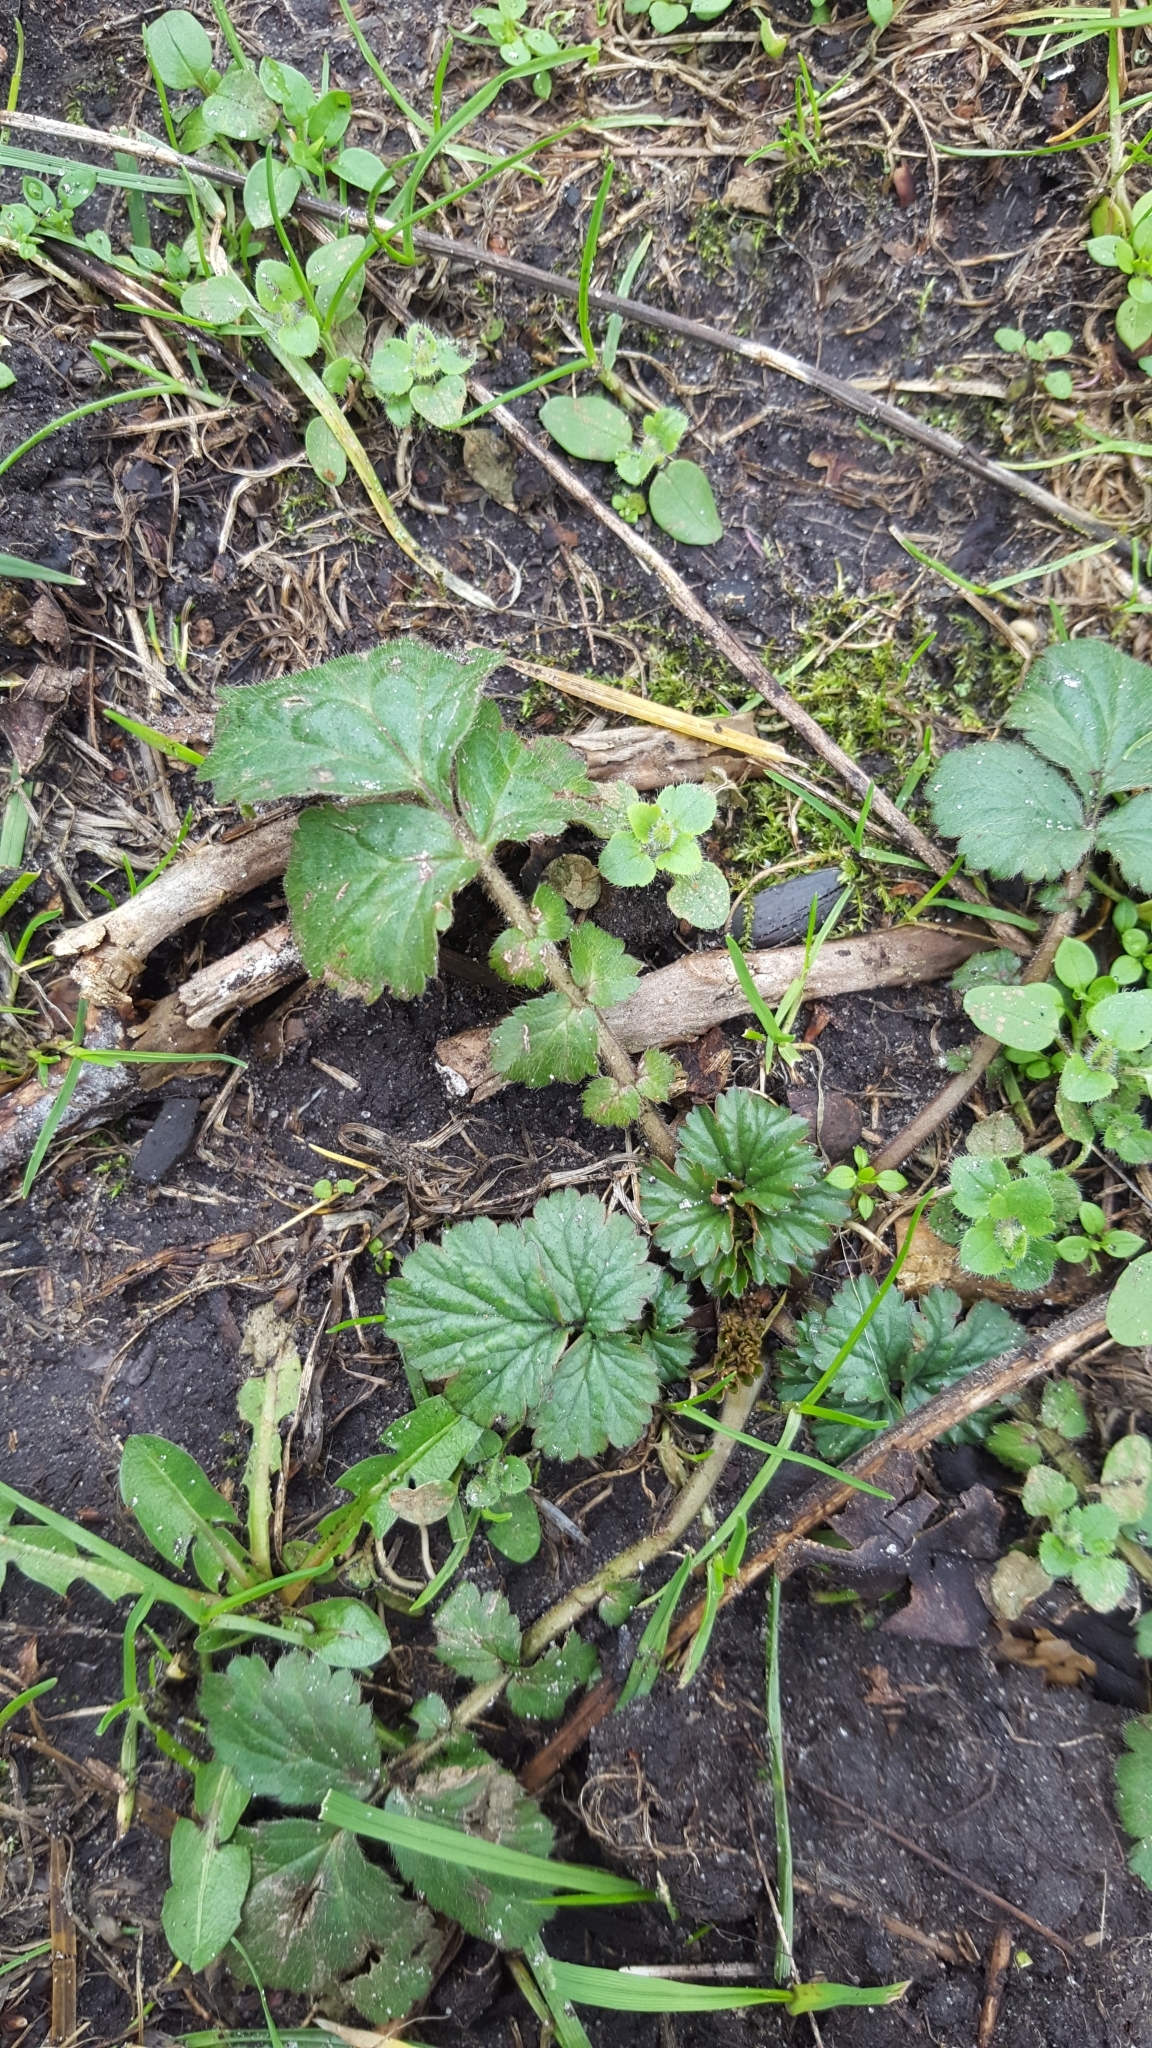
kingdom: Plantae
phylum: Tracheophyta
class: Magnoliopsida
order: Rosales
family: Rosaceae
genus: Geum
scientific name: Geum urbanum
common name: Wood avens
